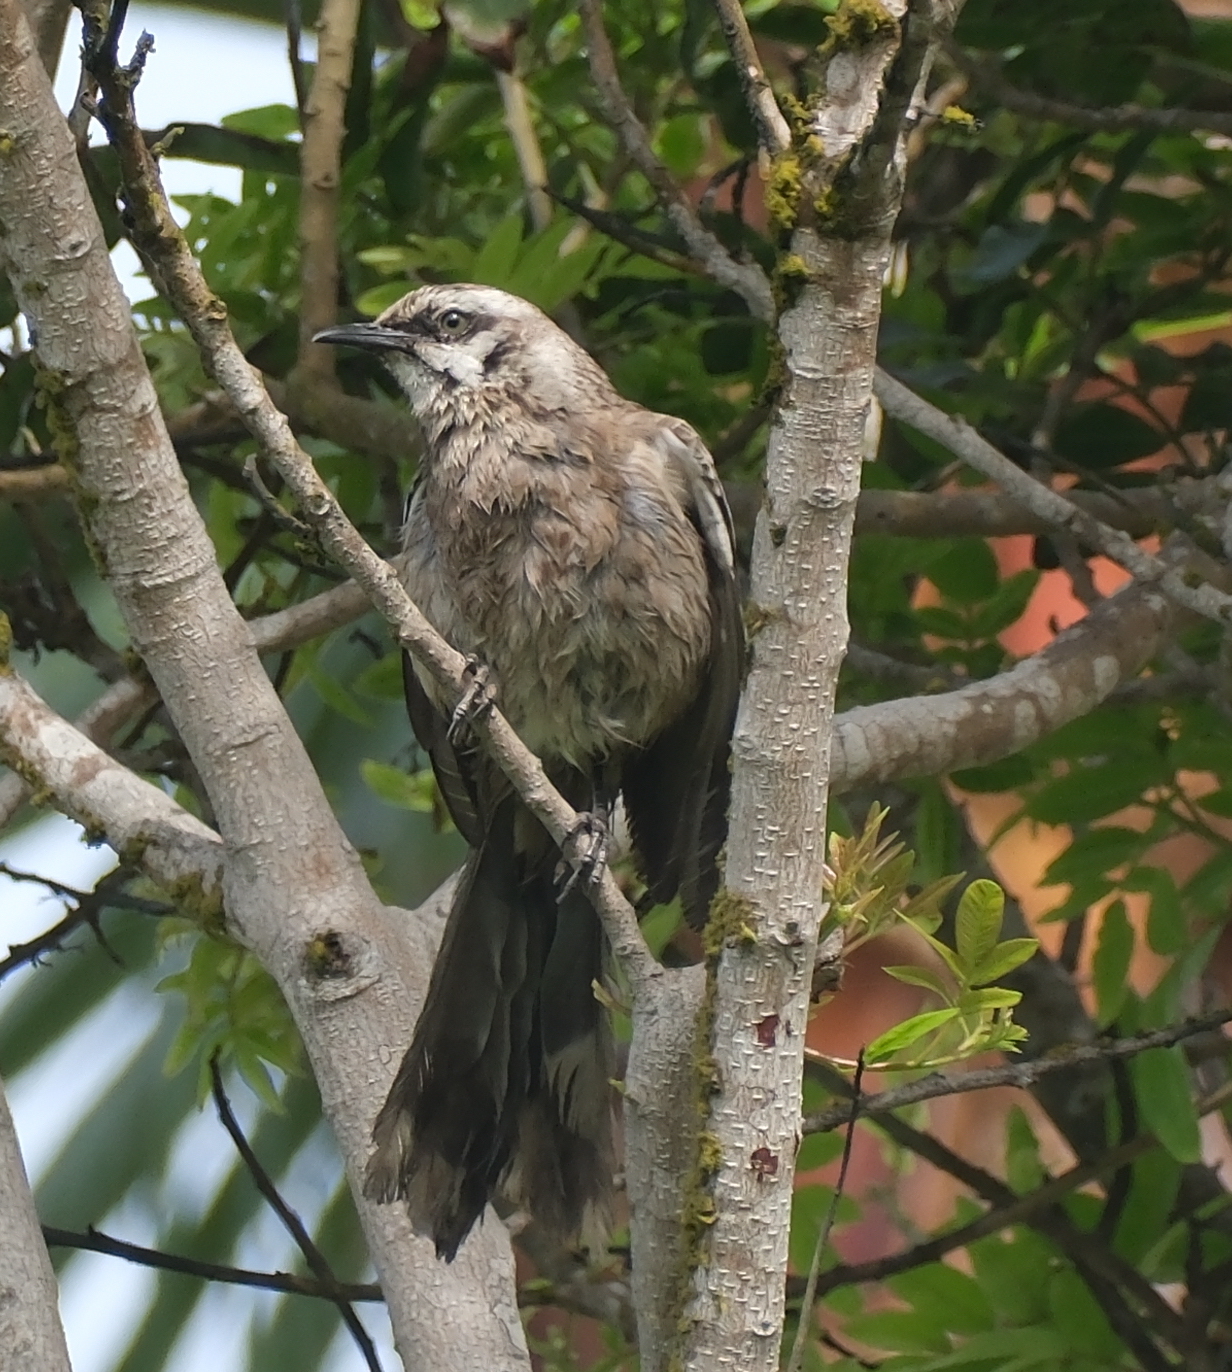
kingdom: Animalia
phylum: Chordata
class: Aves
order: Passeriformes
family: Mimidae
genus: Mimus
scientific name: Mimus longicaudatus
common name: Long-tailed mockingbird
